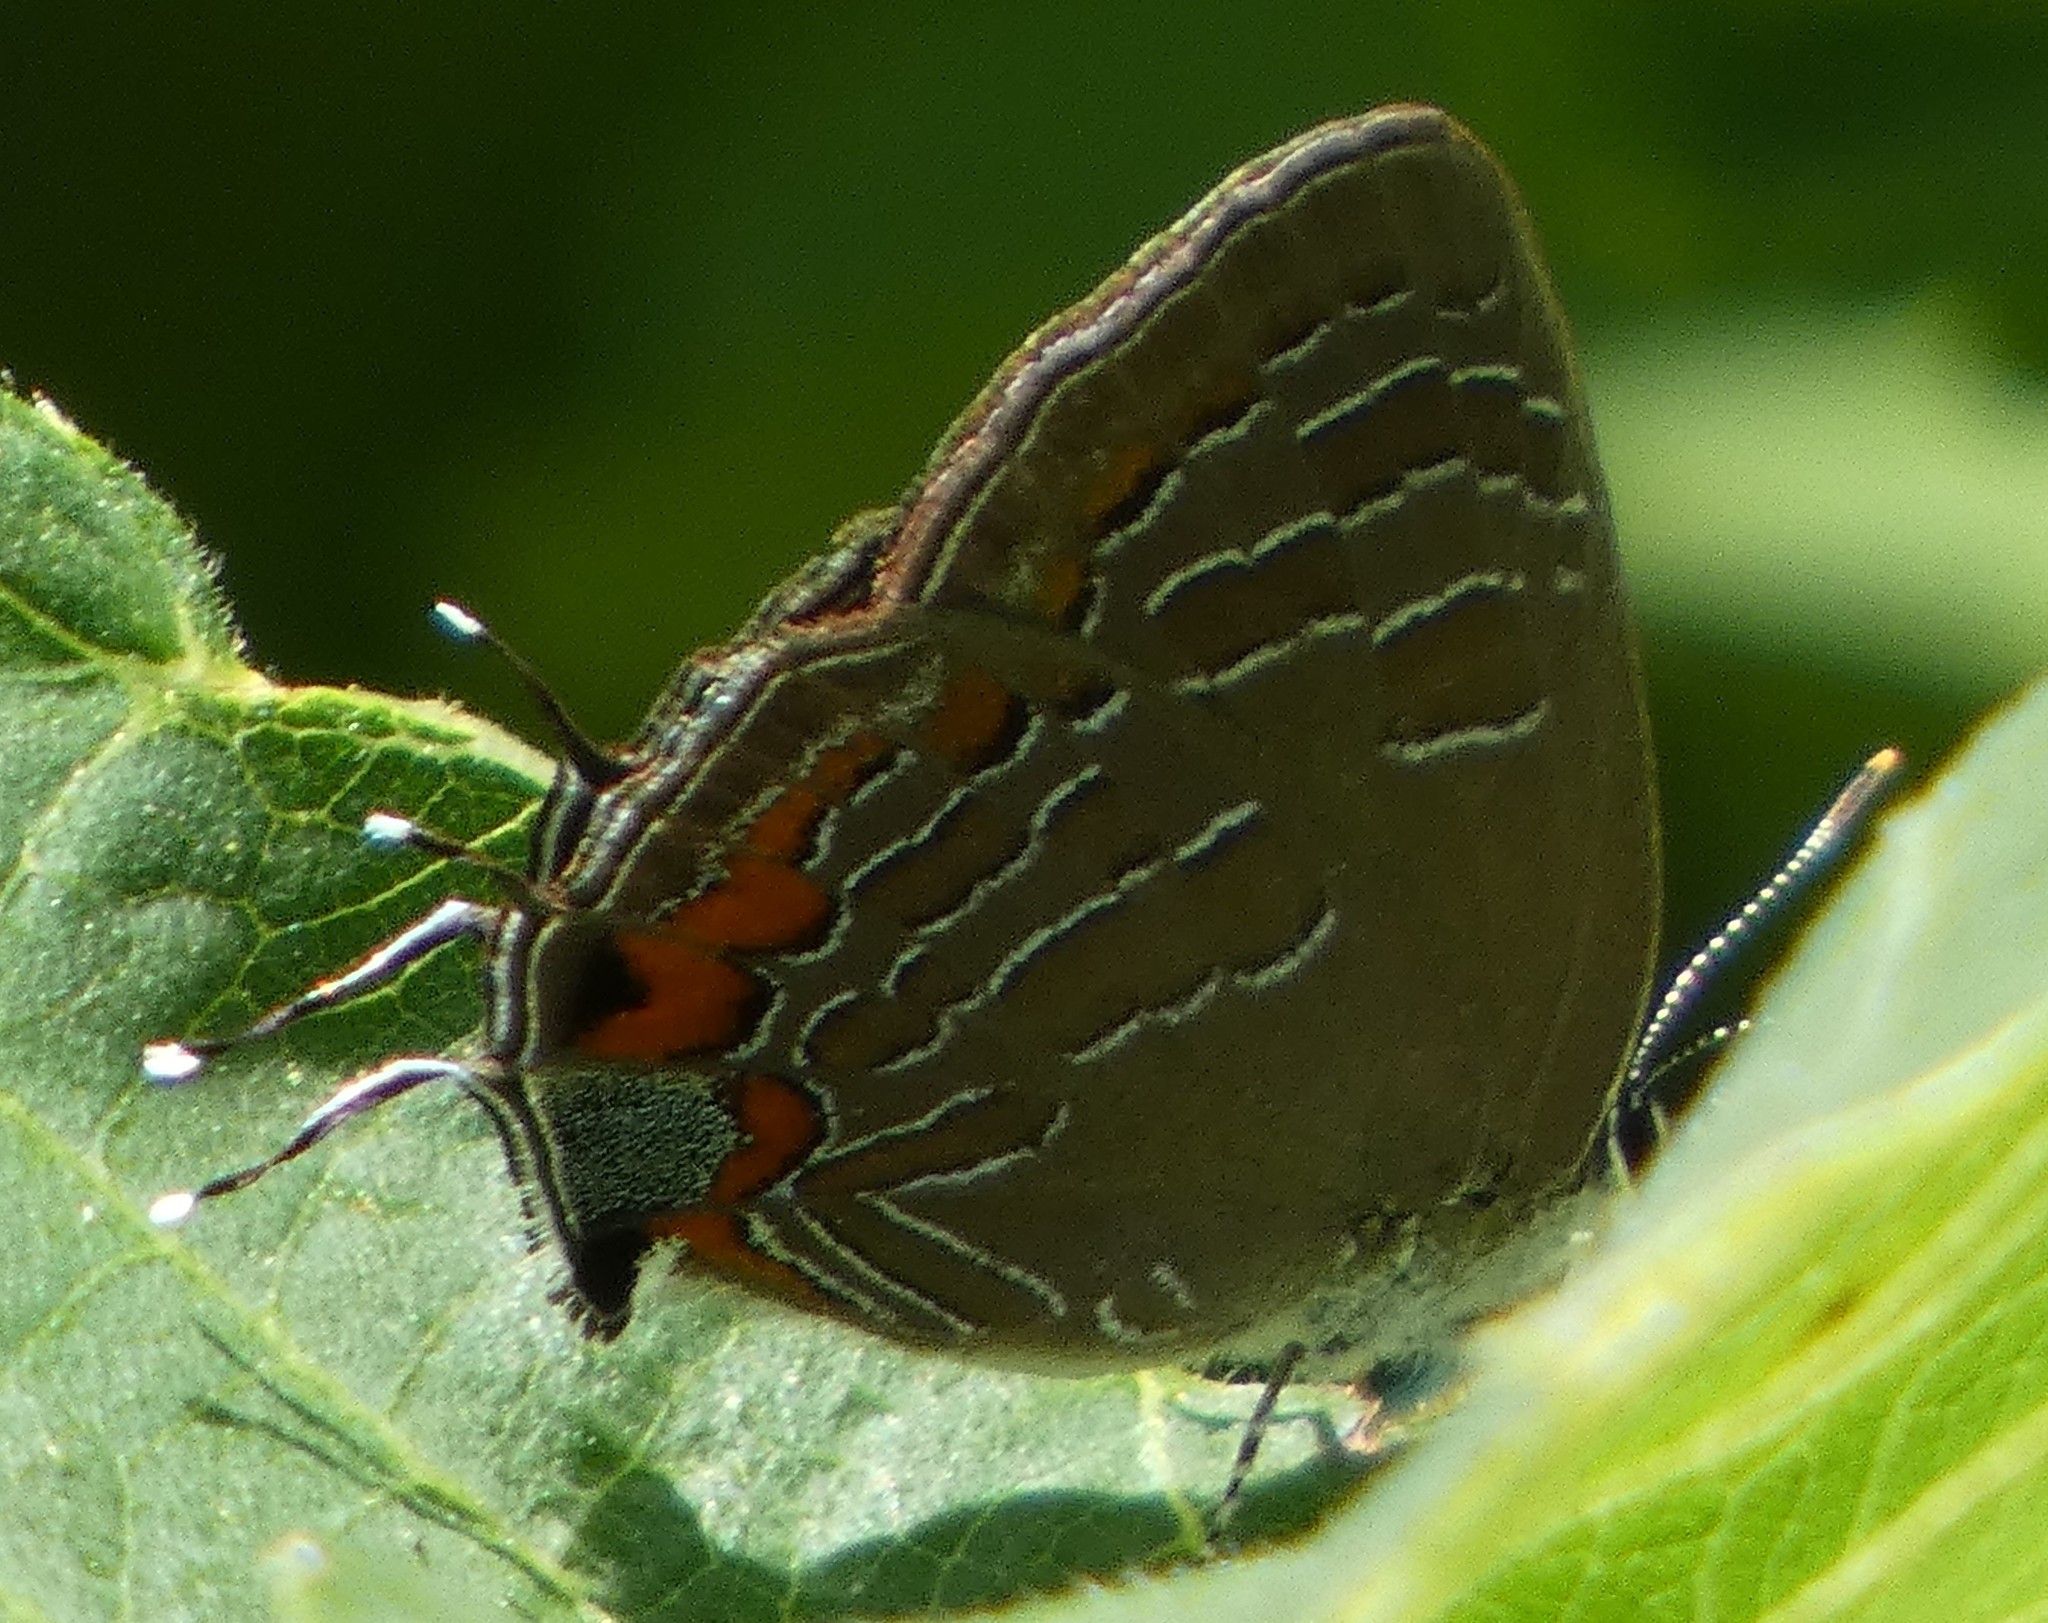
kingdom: Animalia
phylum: Arthropoda
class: Insecta
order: Lepidoptera
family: Lycaenidae
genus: Satyrium
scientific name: Satyrium liparops
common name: Striped hairstreak
